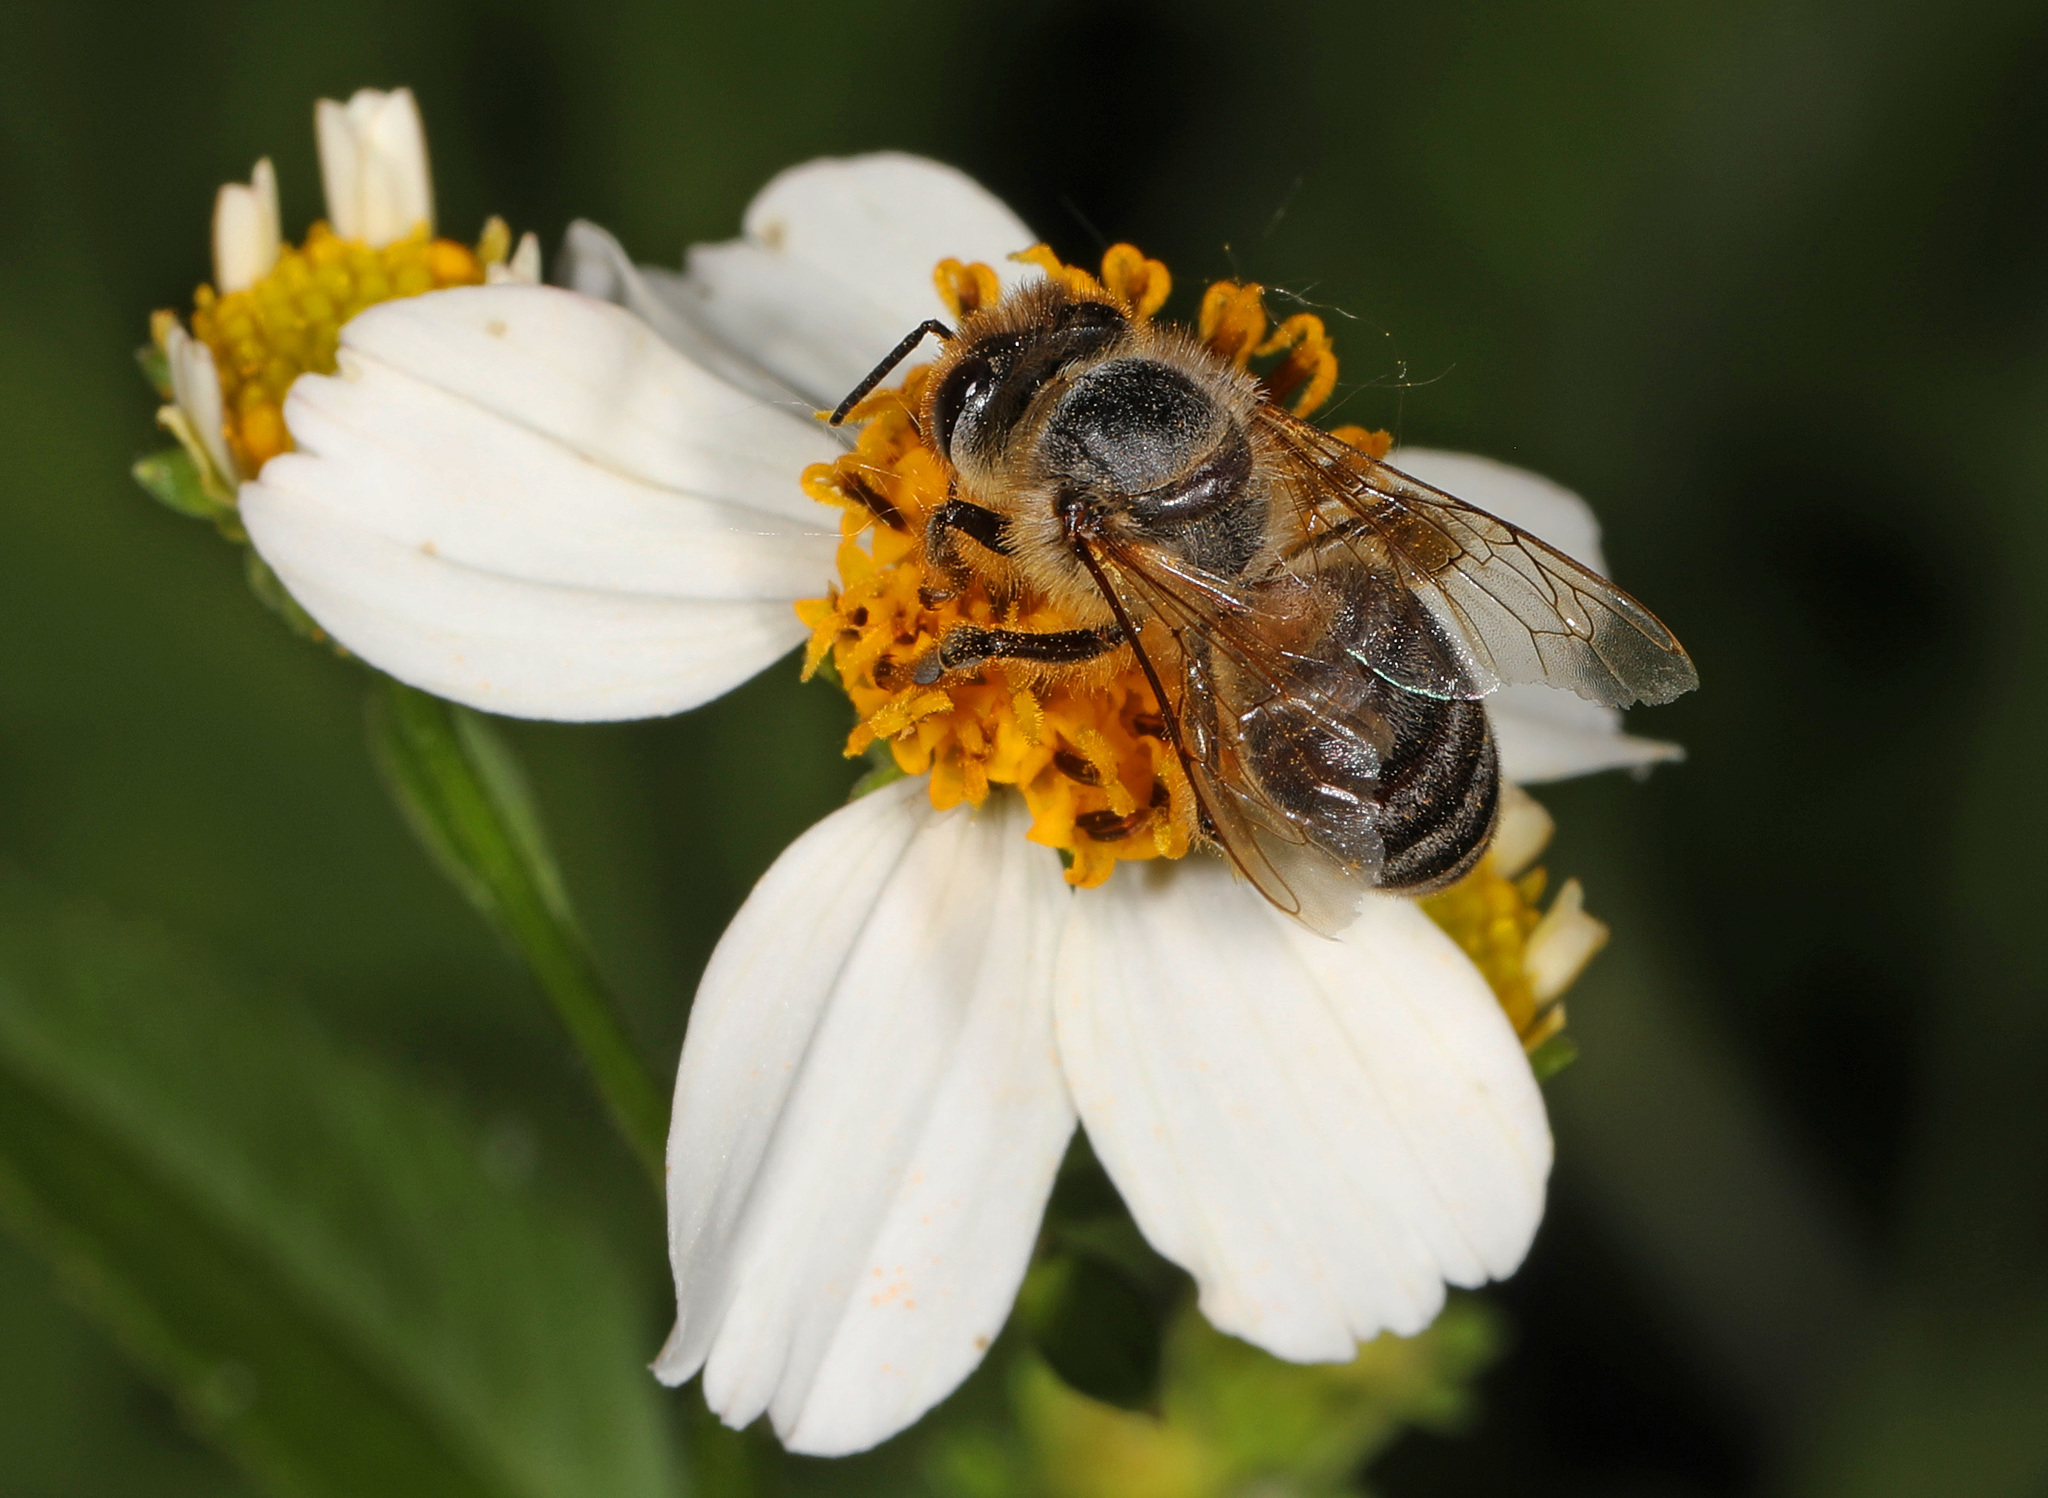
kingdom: Animalia
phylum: Arthropoda
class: Insecta
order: Hymenoptera
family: Apidae
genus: Apis
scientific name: Apis mellifera
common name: Honey bee
